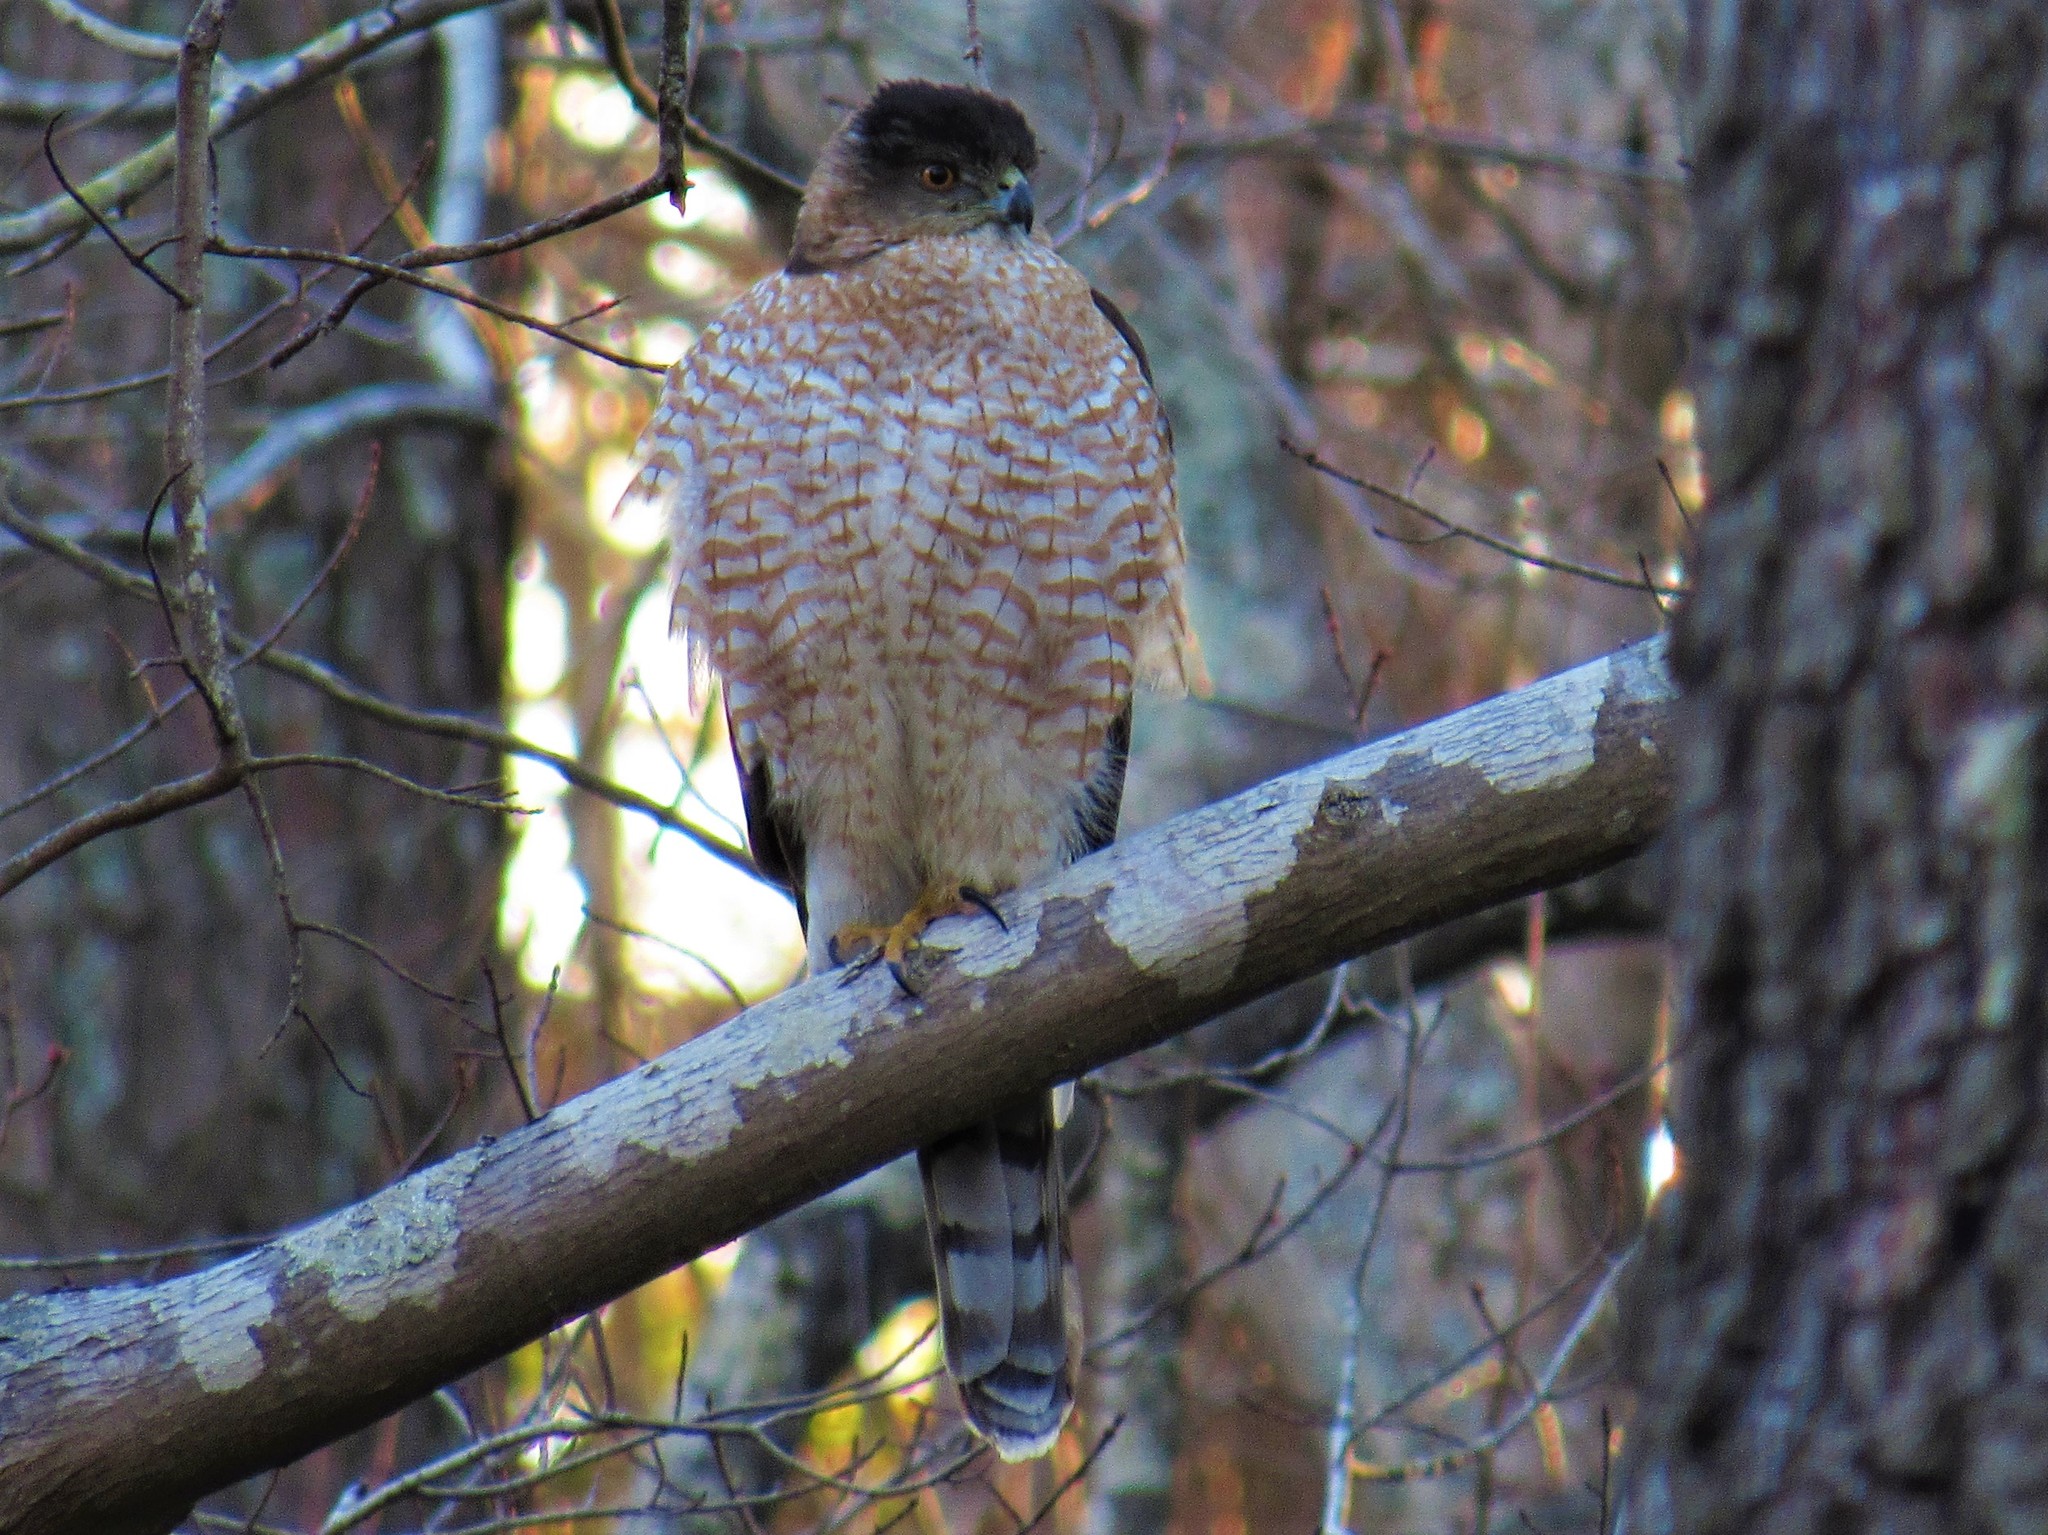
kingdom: Animalia
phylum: Chordata
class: Aves
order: Accipitriformes
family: Accipitridae
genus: Accipiter
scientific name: Accipiter cooperii
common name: Cooper's hawk
